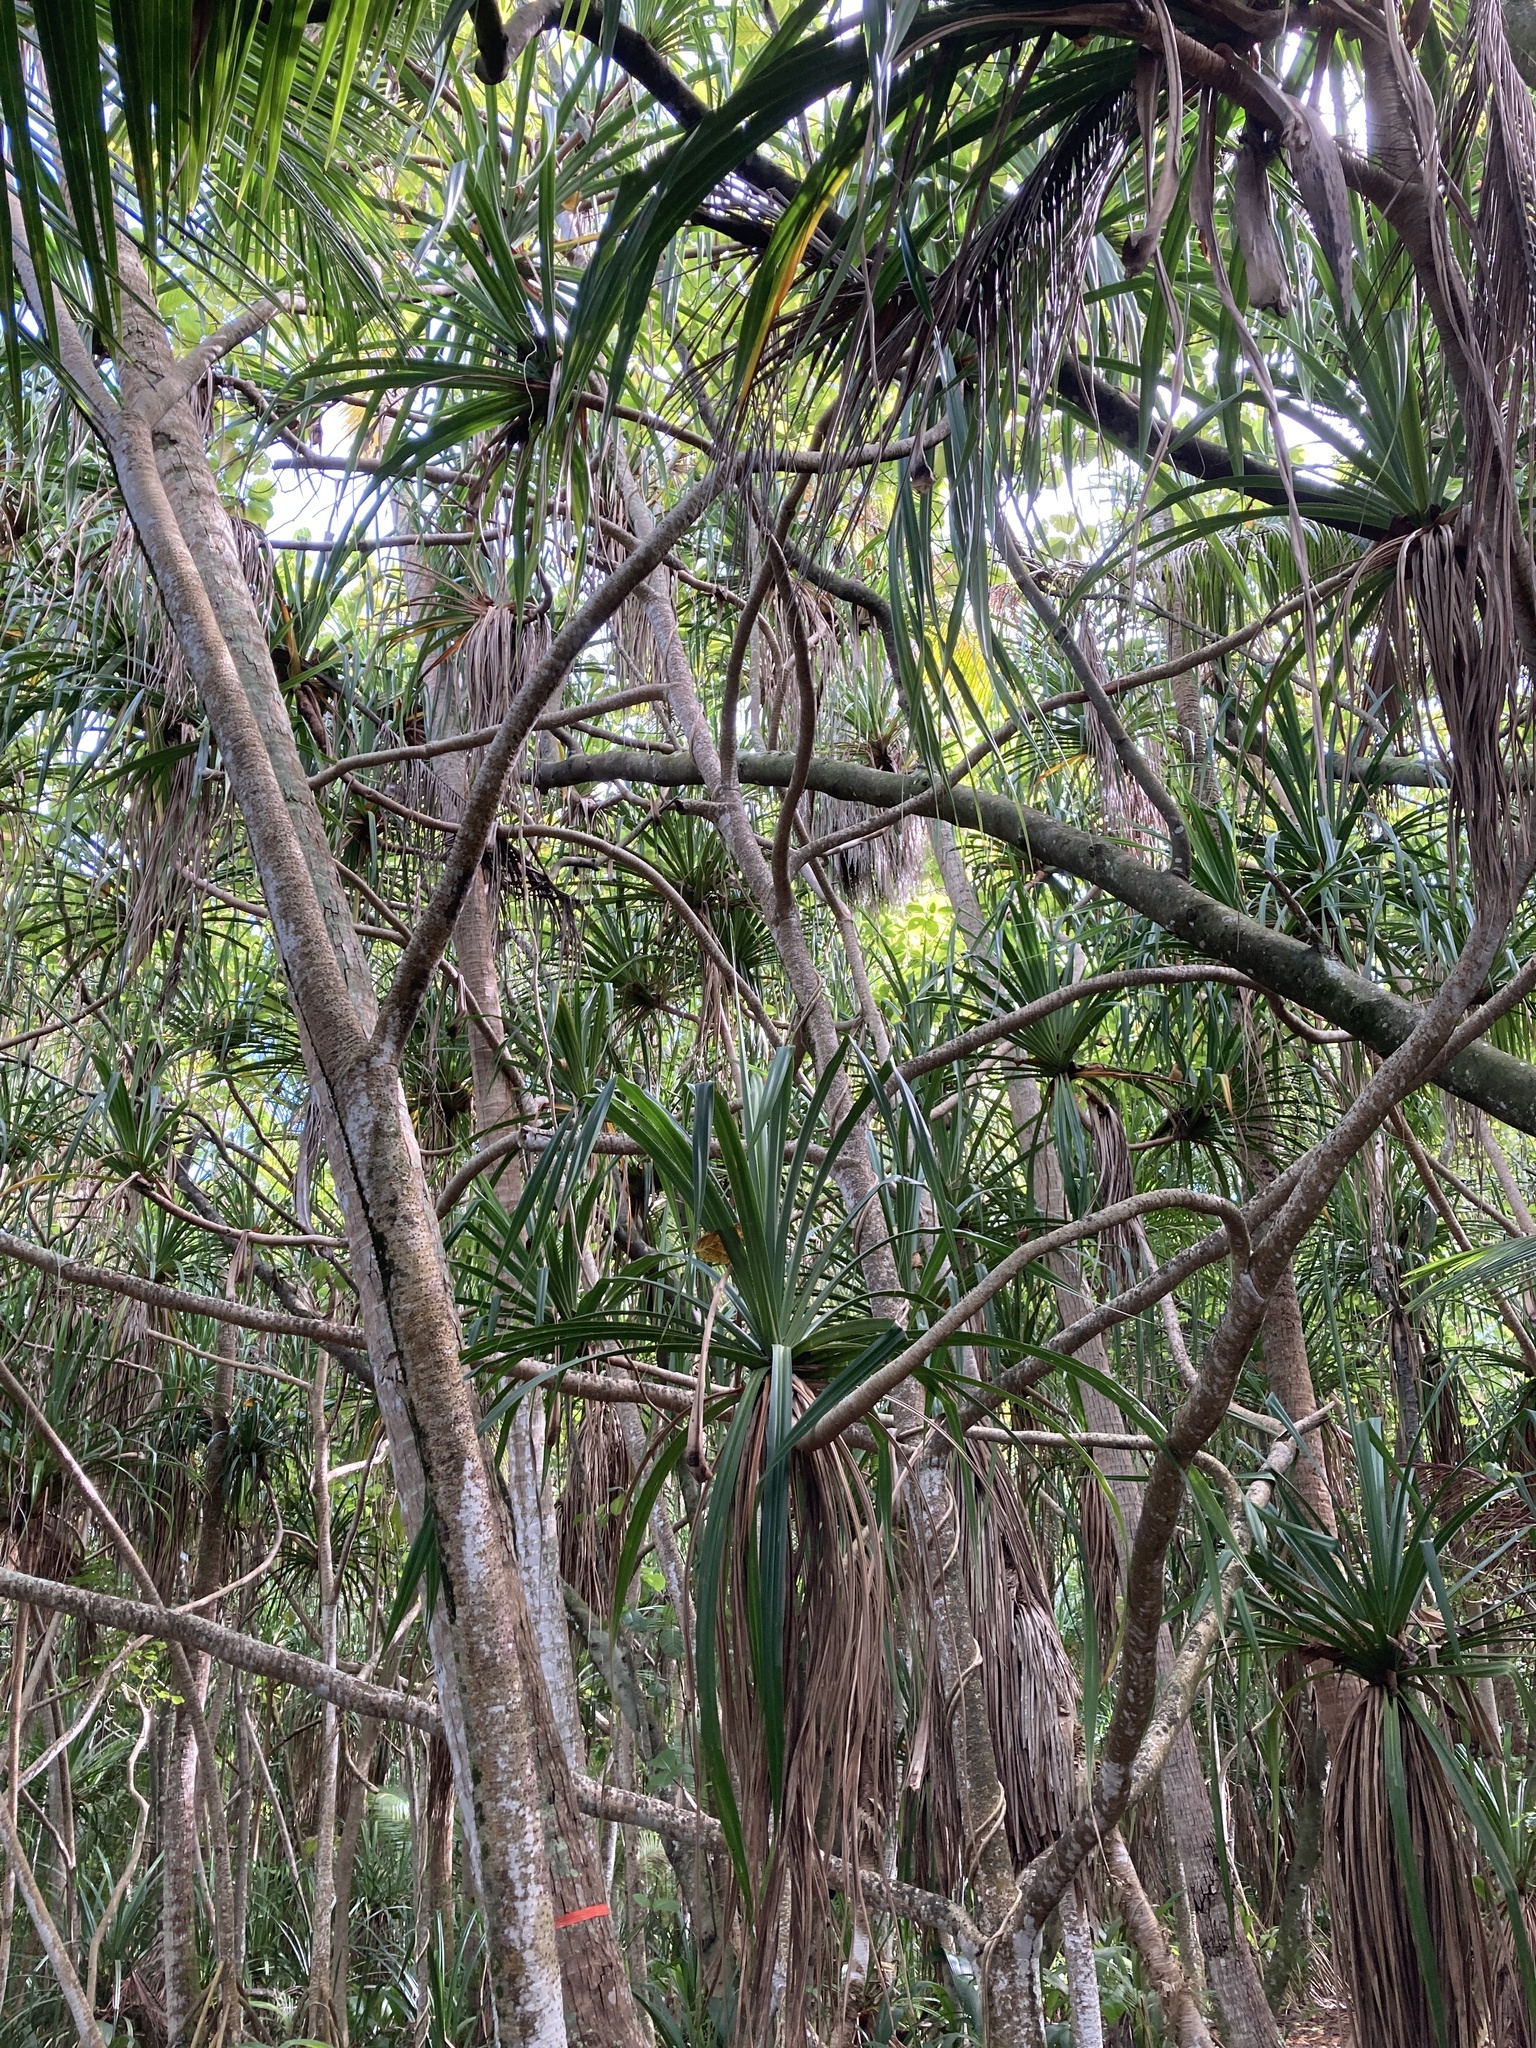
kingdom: Plantae
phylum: Tracheophyta
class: Liliopsida
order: Pandanales
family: Pandanaceae
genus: Pandanus
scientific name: Pandanus tectorius
